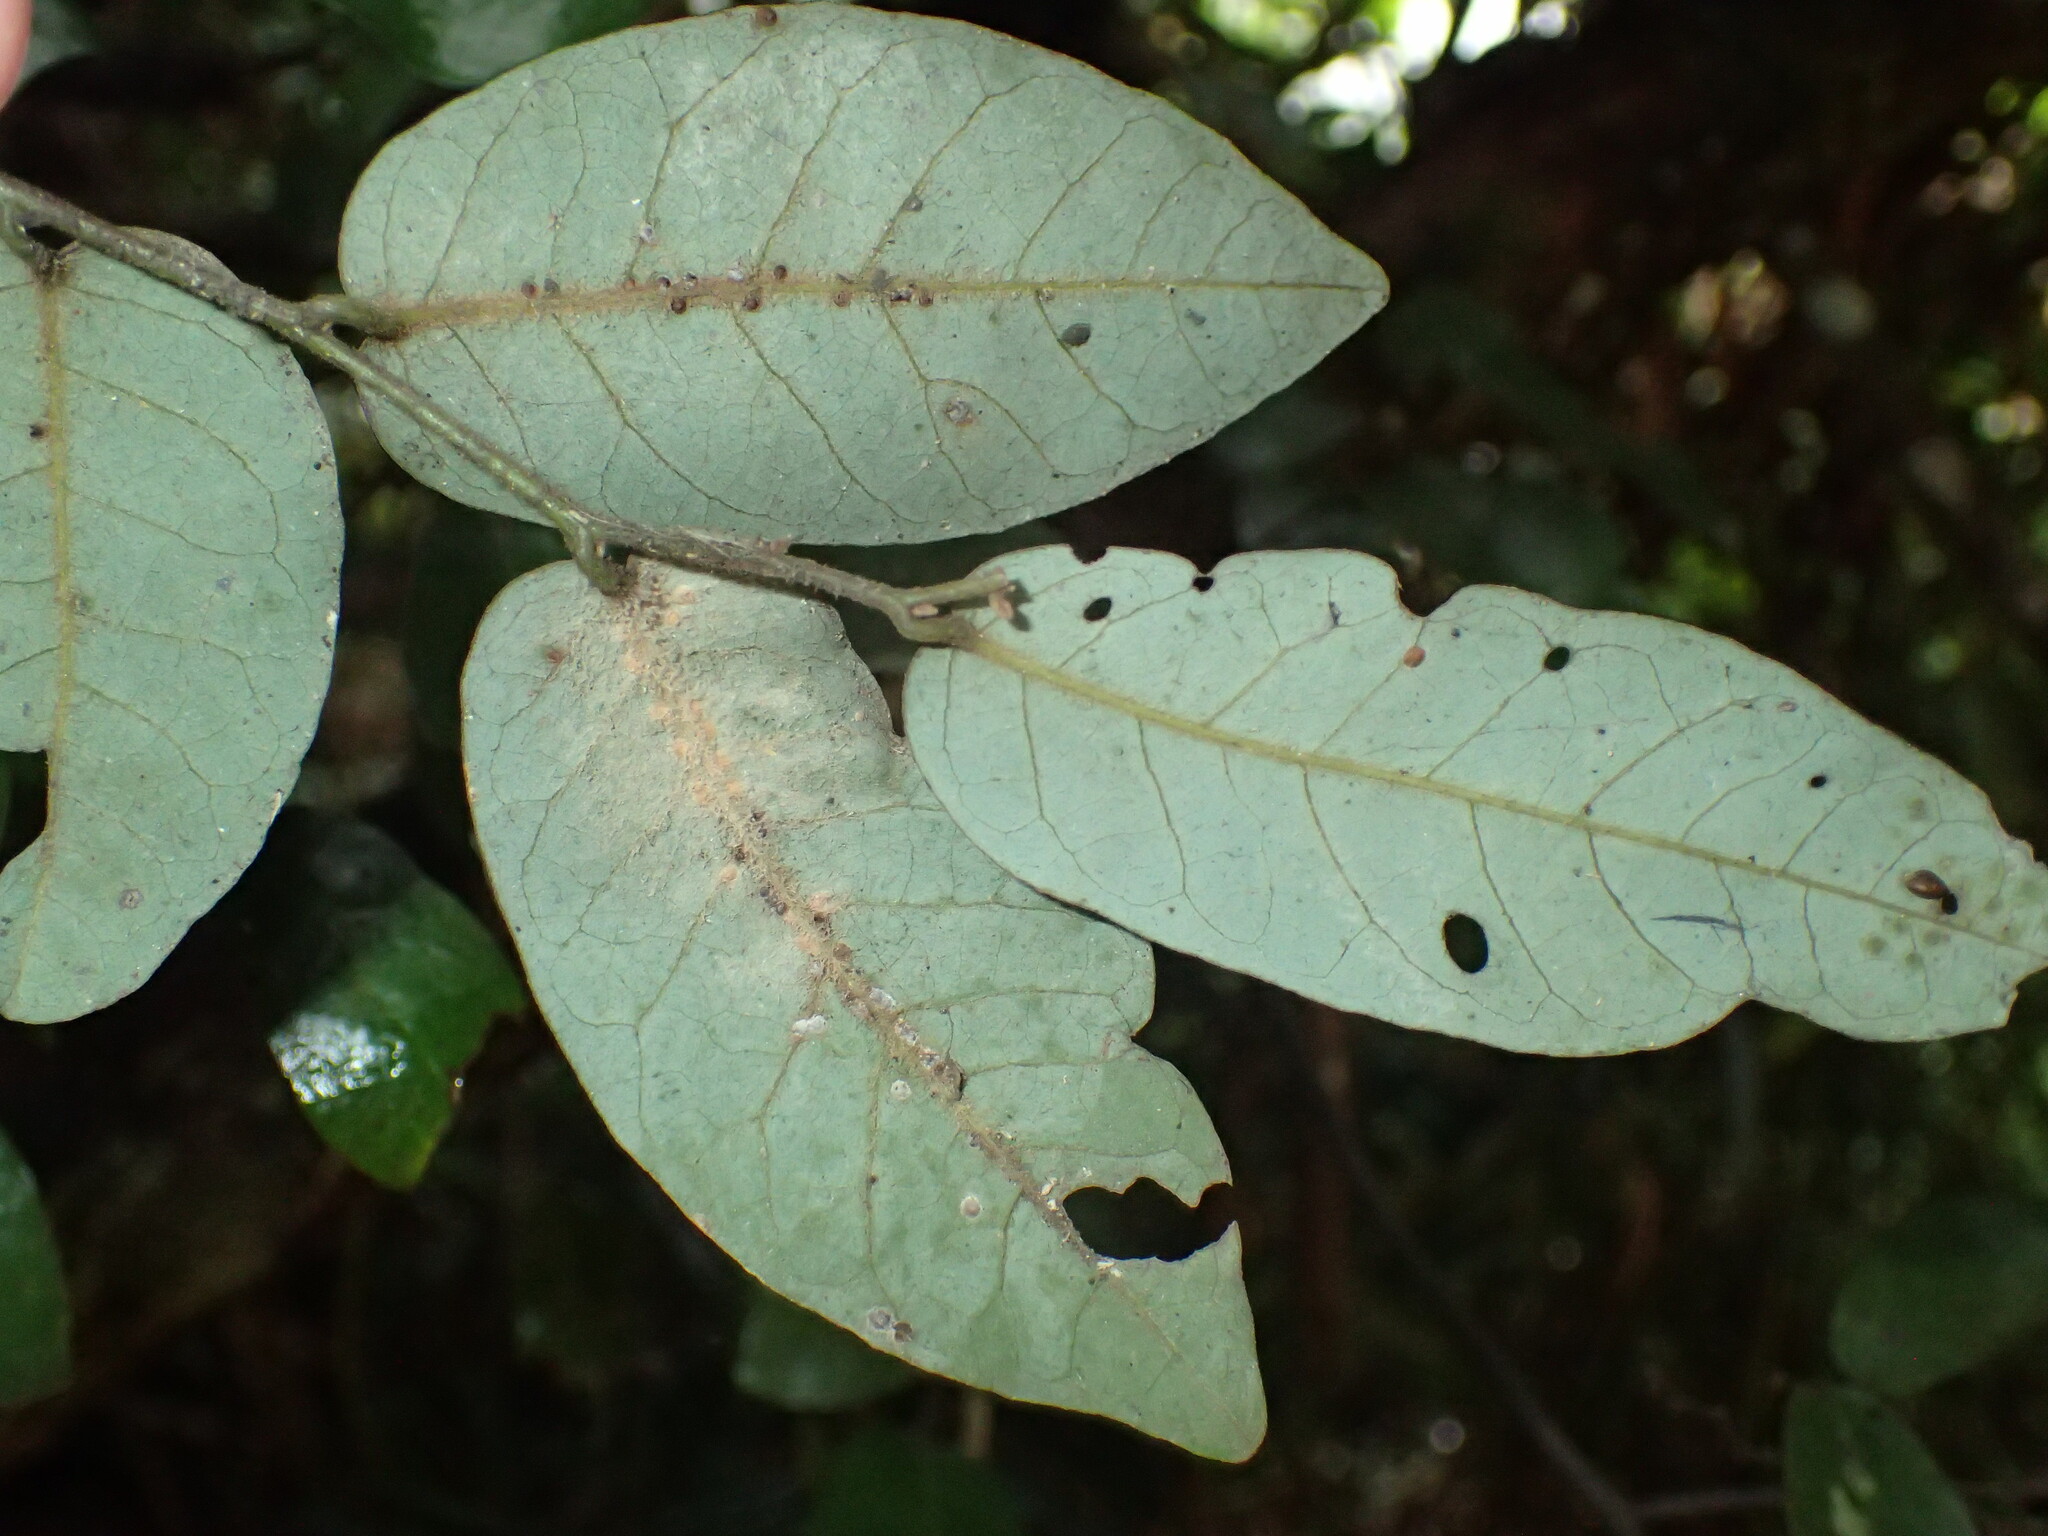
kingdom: Plantae
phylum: Tracheophyta
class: Magnoliopsida
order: Magnoliales
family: Annonaceae
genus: Monanthotaxis
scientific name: Monanthotaxis caffra
